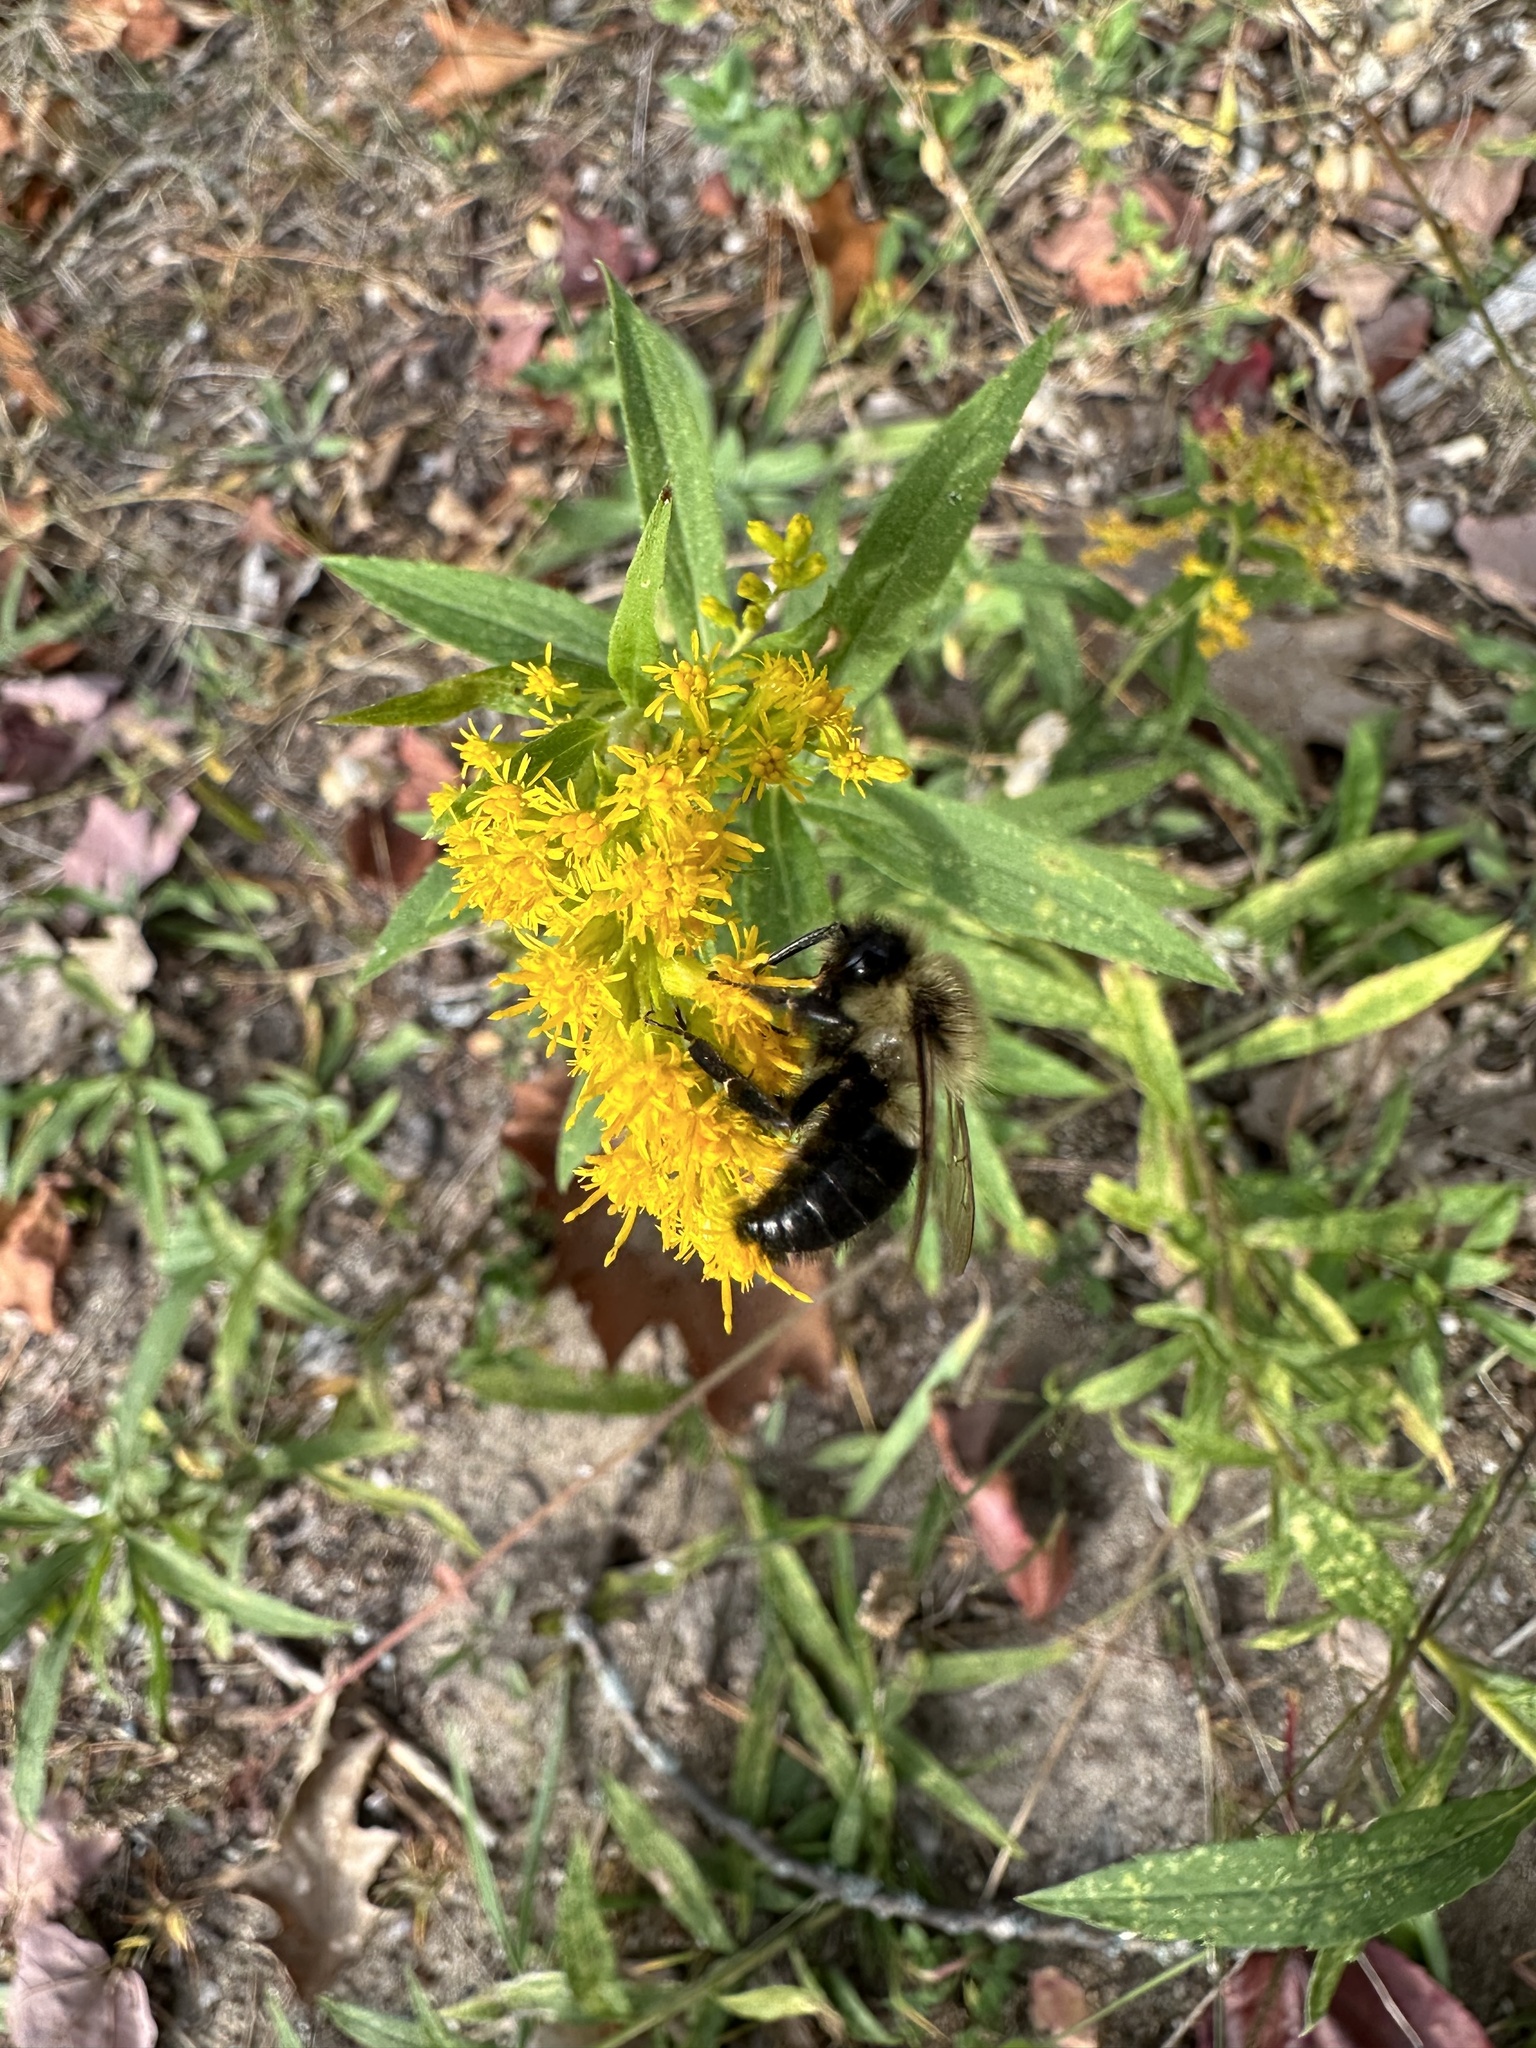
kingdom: Animalia
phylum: Arthropoda
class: Insecta
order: Hymenoptera
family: Apidae
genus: Bombus
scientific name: Bombus impatiens
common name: Common eastern bumble bee
